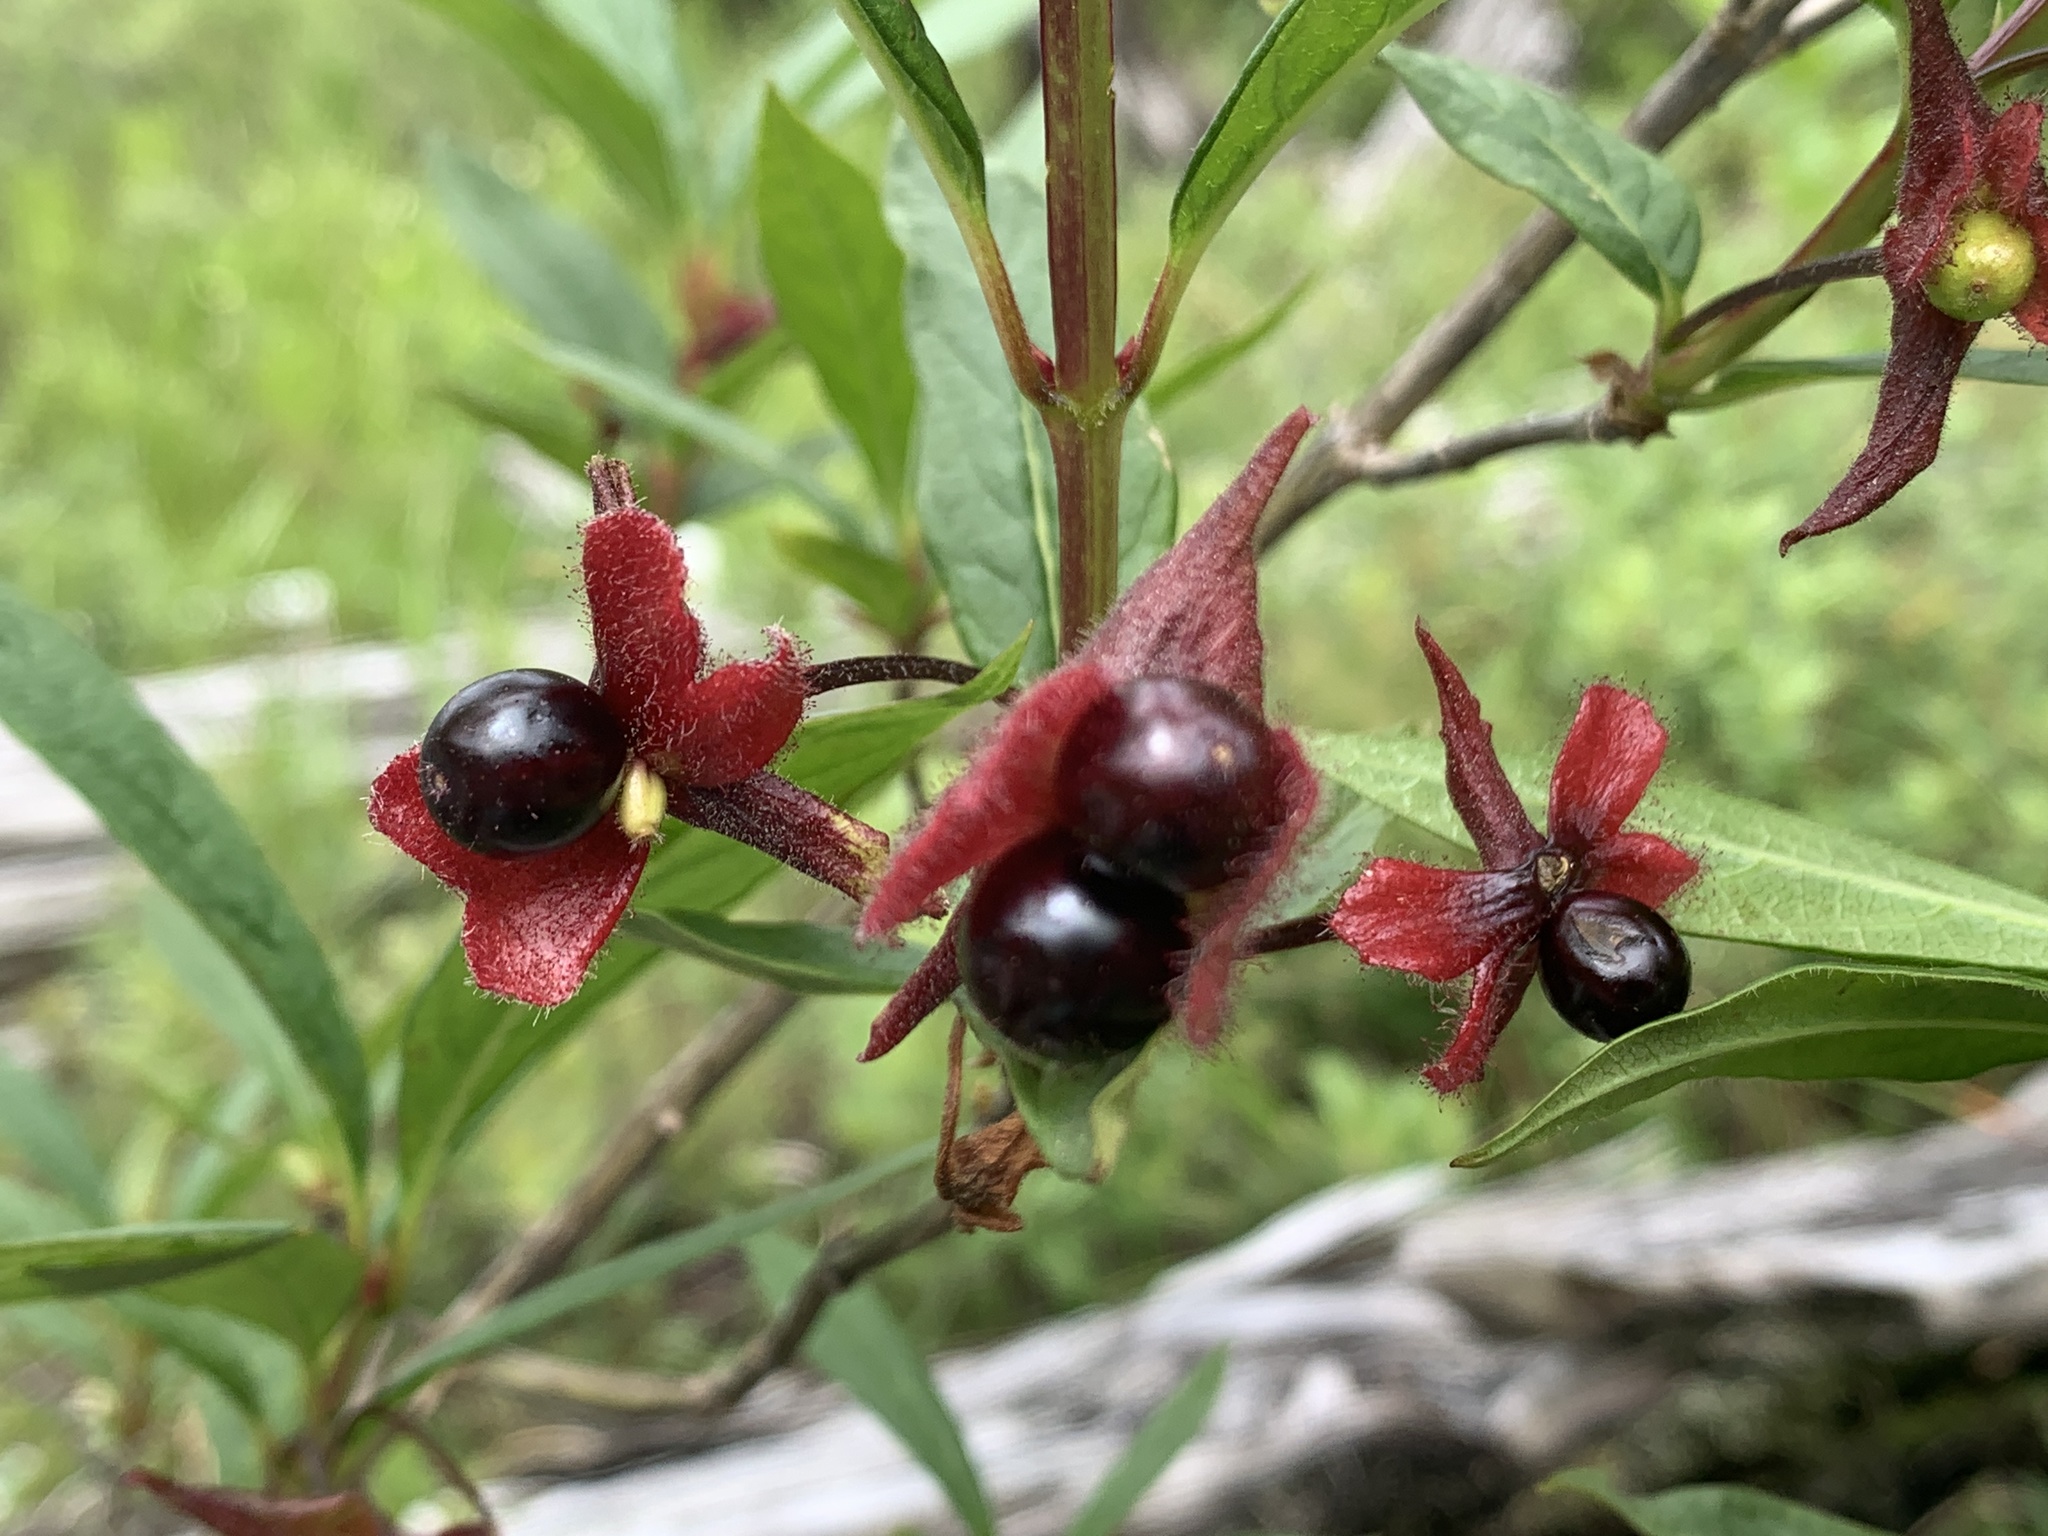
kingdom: Plantae
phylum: Tracheophyta
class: Magnoliopsida
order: Dipsacales
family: Caprifoliaceae
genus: Lonicera
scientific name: Lonicera involucrata
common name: Californian honeysuckle
